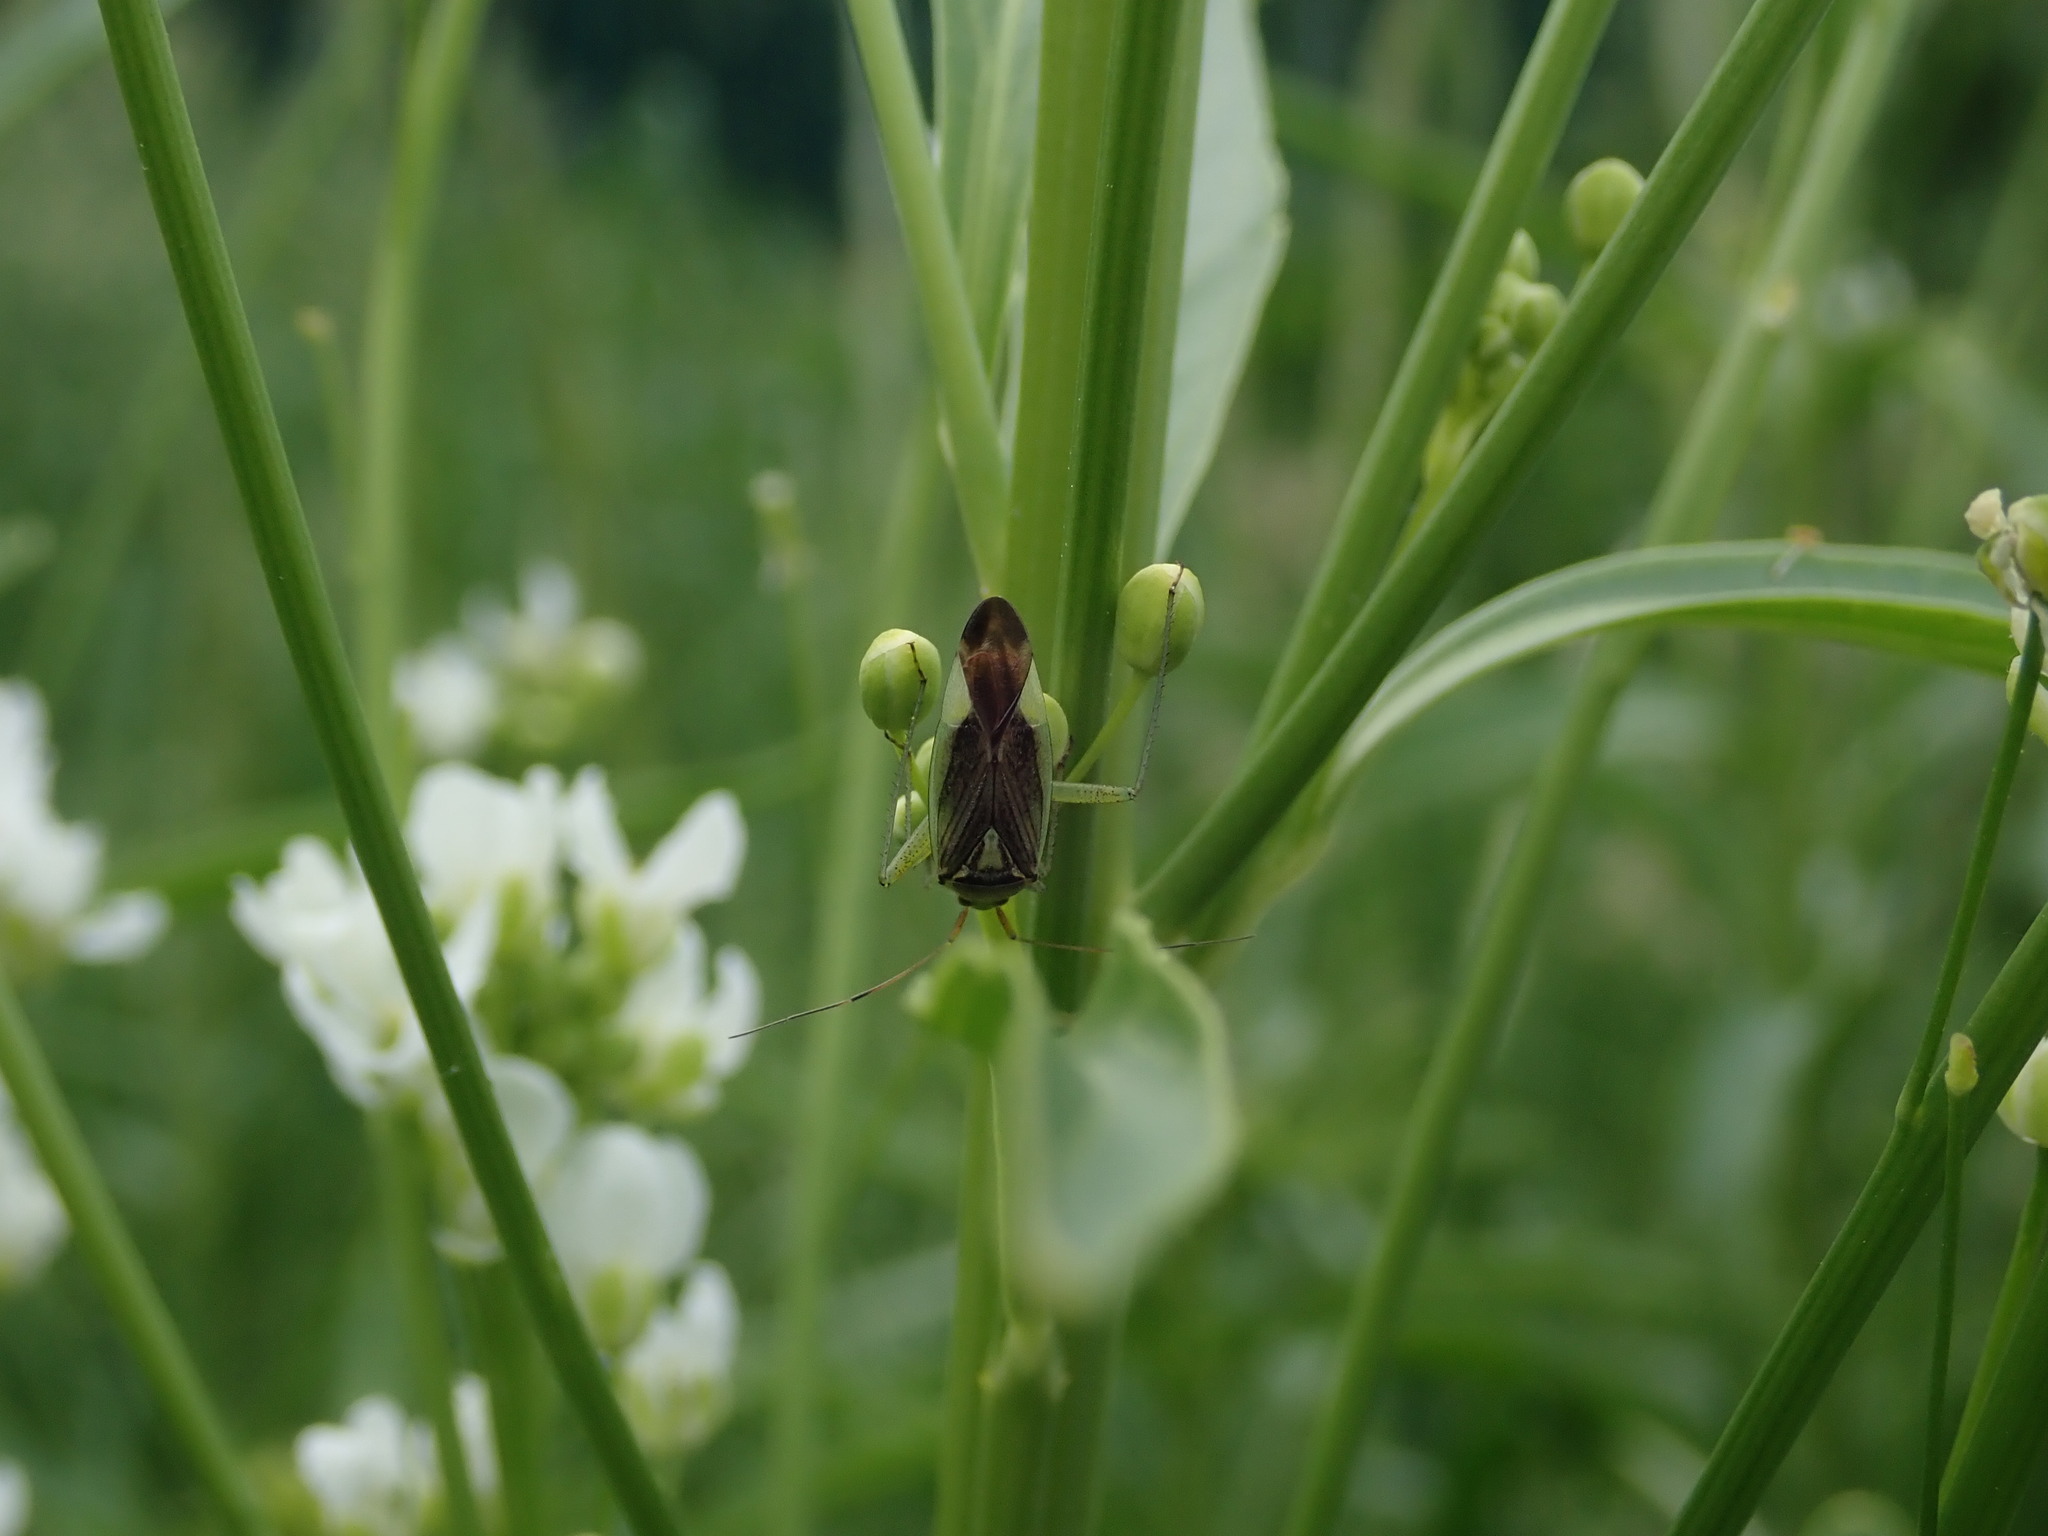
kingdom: Animalia
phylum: Arthropoda
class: Insecta
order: Hemiptera
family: Miridae
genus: Closterotomus
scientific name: Closterotomus trivialis
